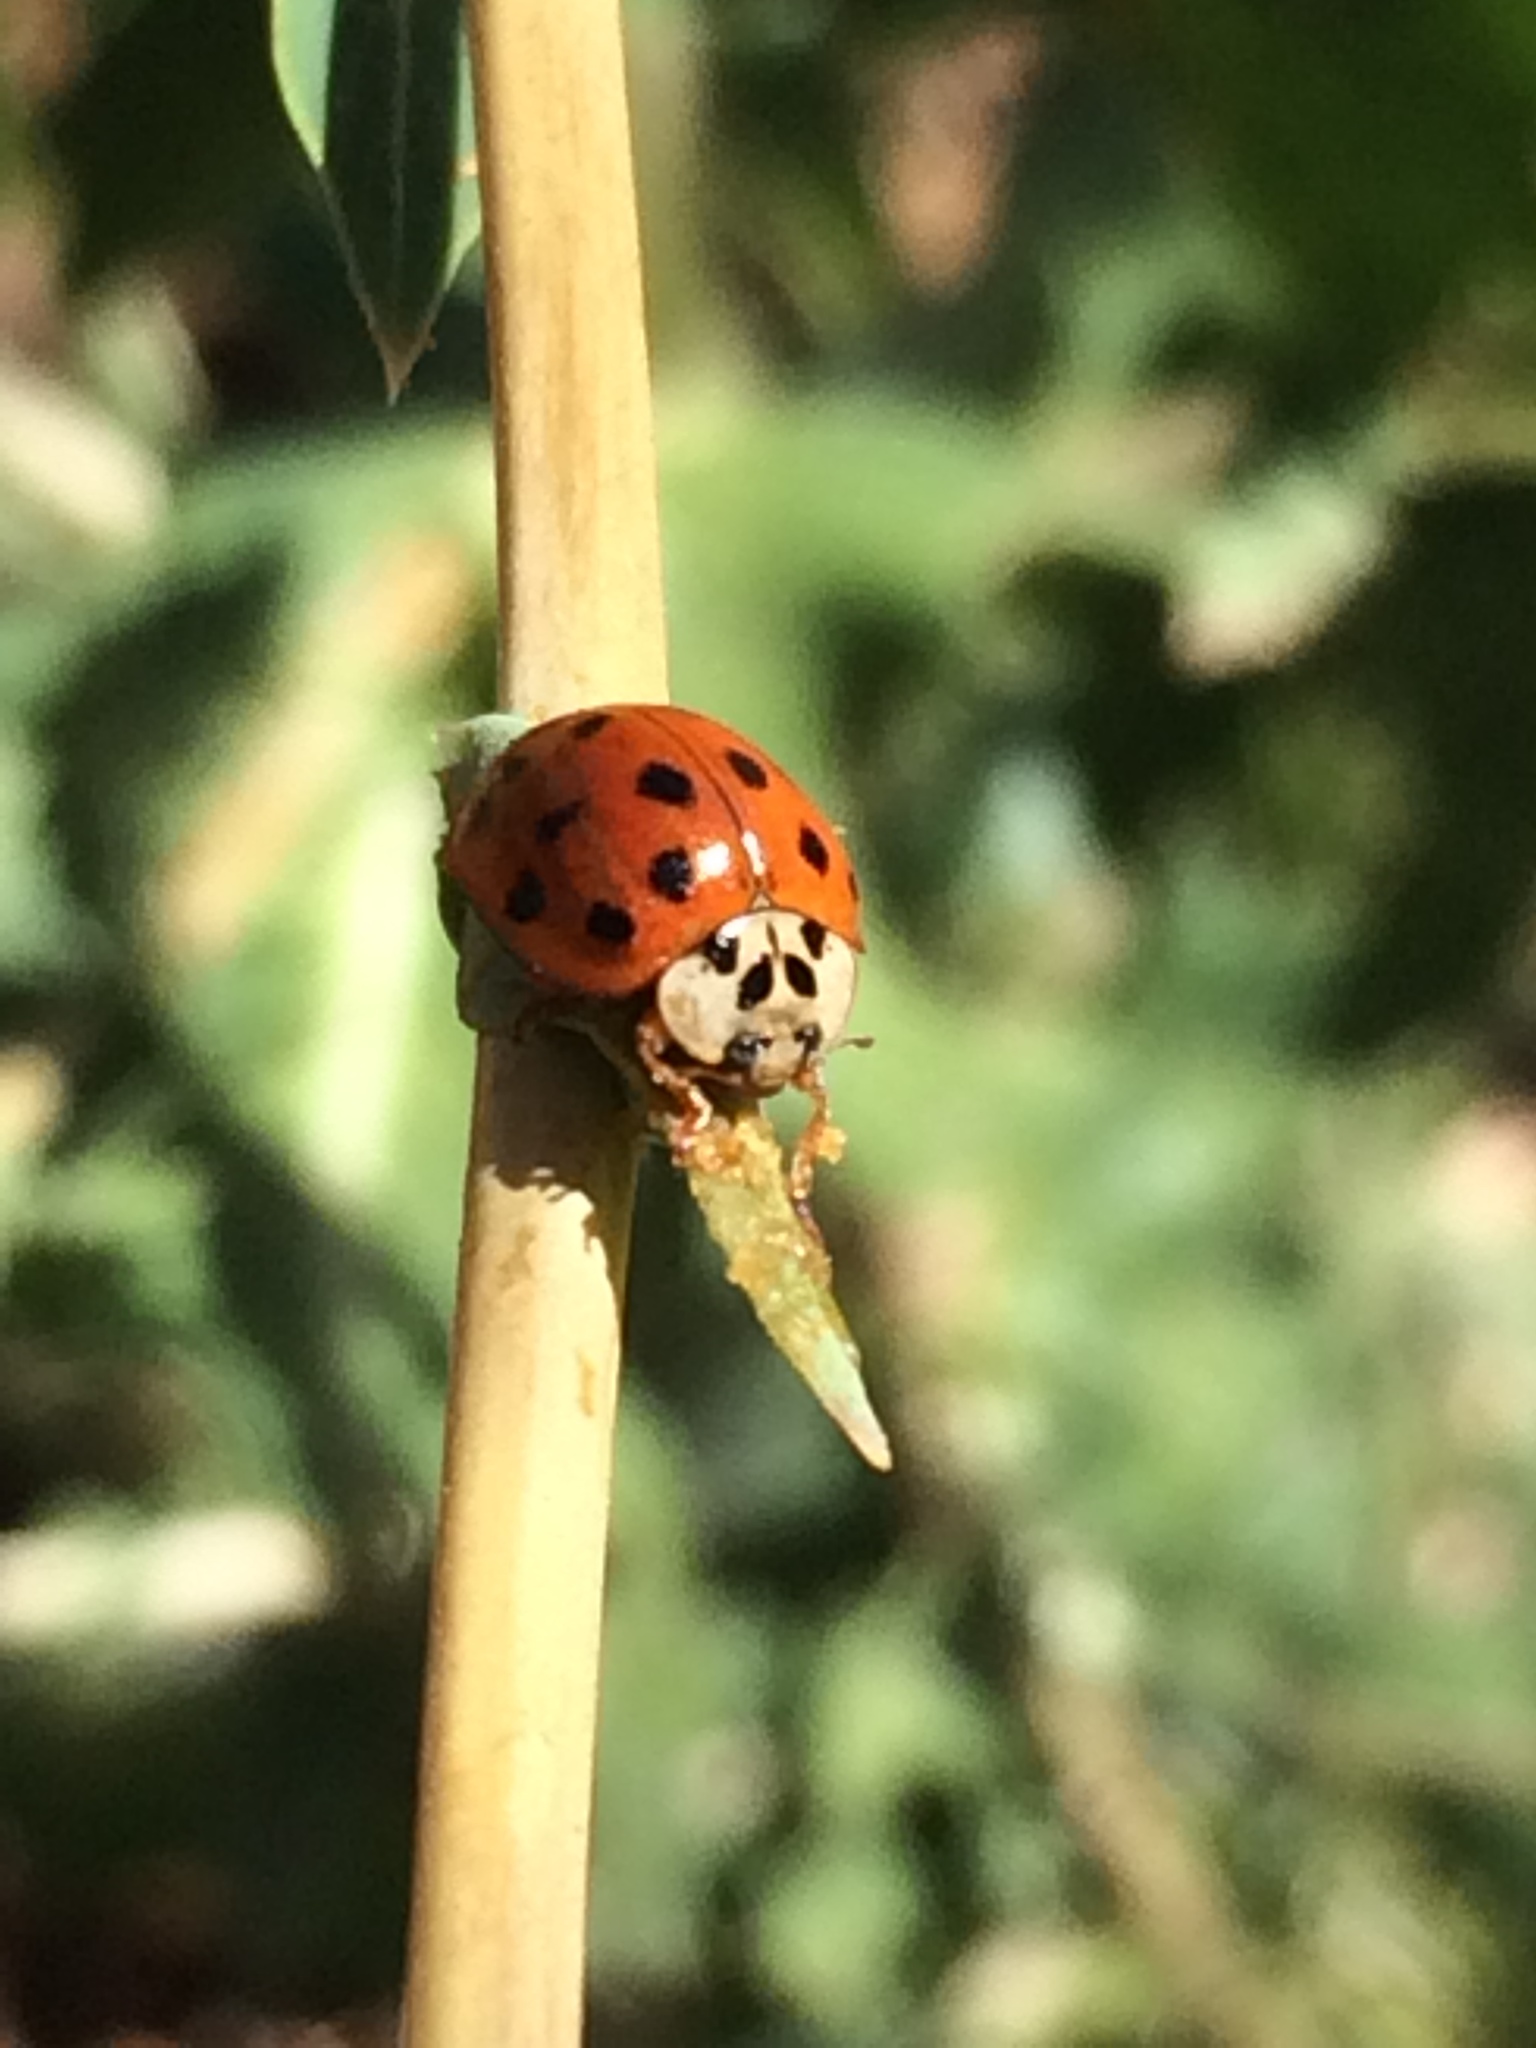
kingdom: Animalia
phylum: Arthropoda
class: Insecta
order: Coleoptera
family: Coccinellidae
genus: Harmonia
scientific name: Harmonia axyridis
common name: Harlequin ladybird
